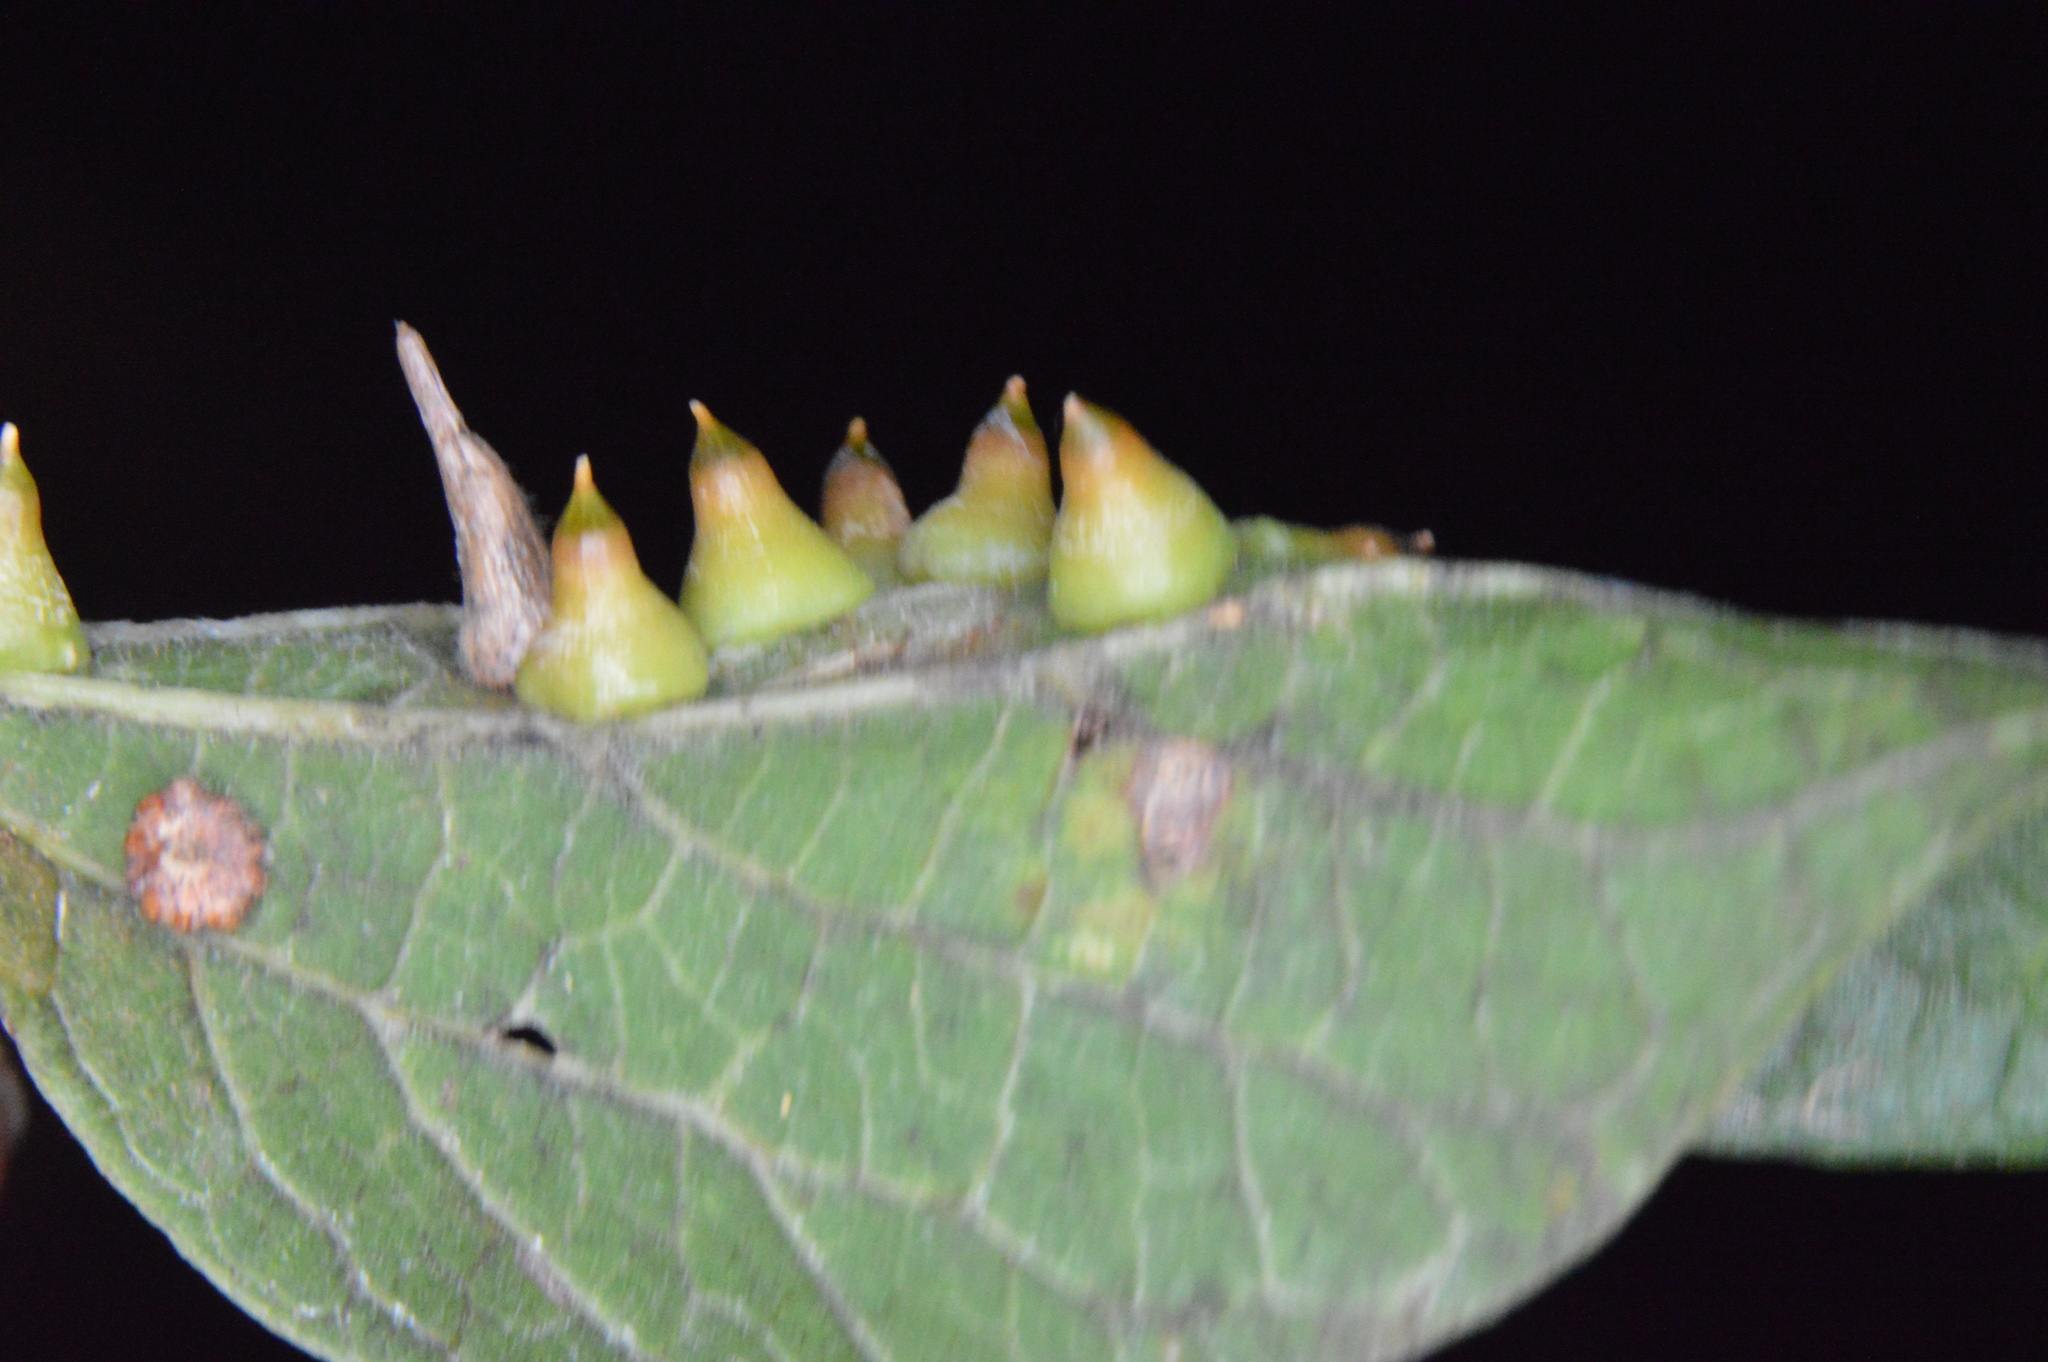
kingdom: Animalia
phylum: Arthropoda
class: Insecta
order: Diptera
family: Cecidomyiidae
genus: Celticecis
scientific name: Celticecis spiniformis
